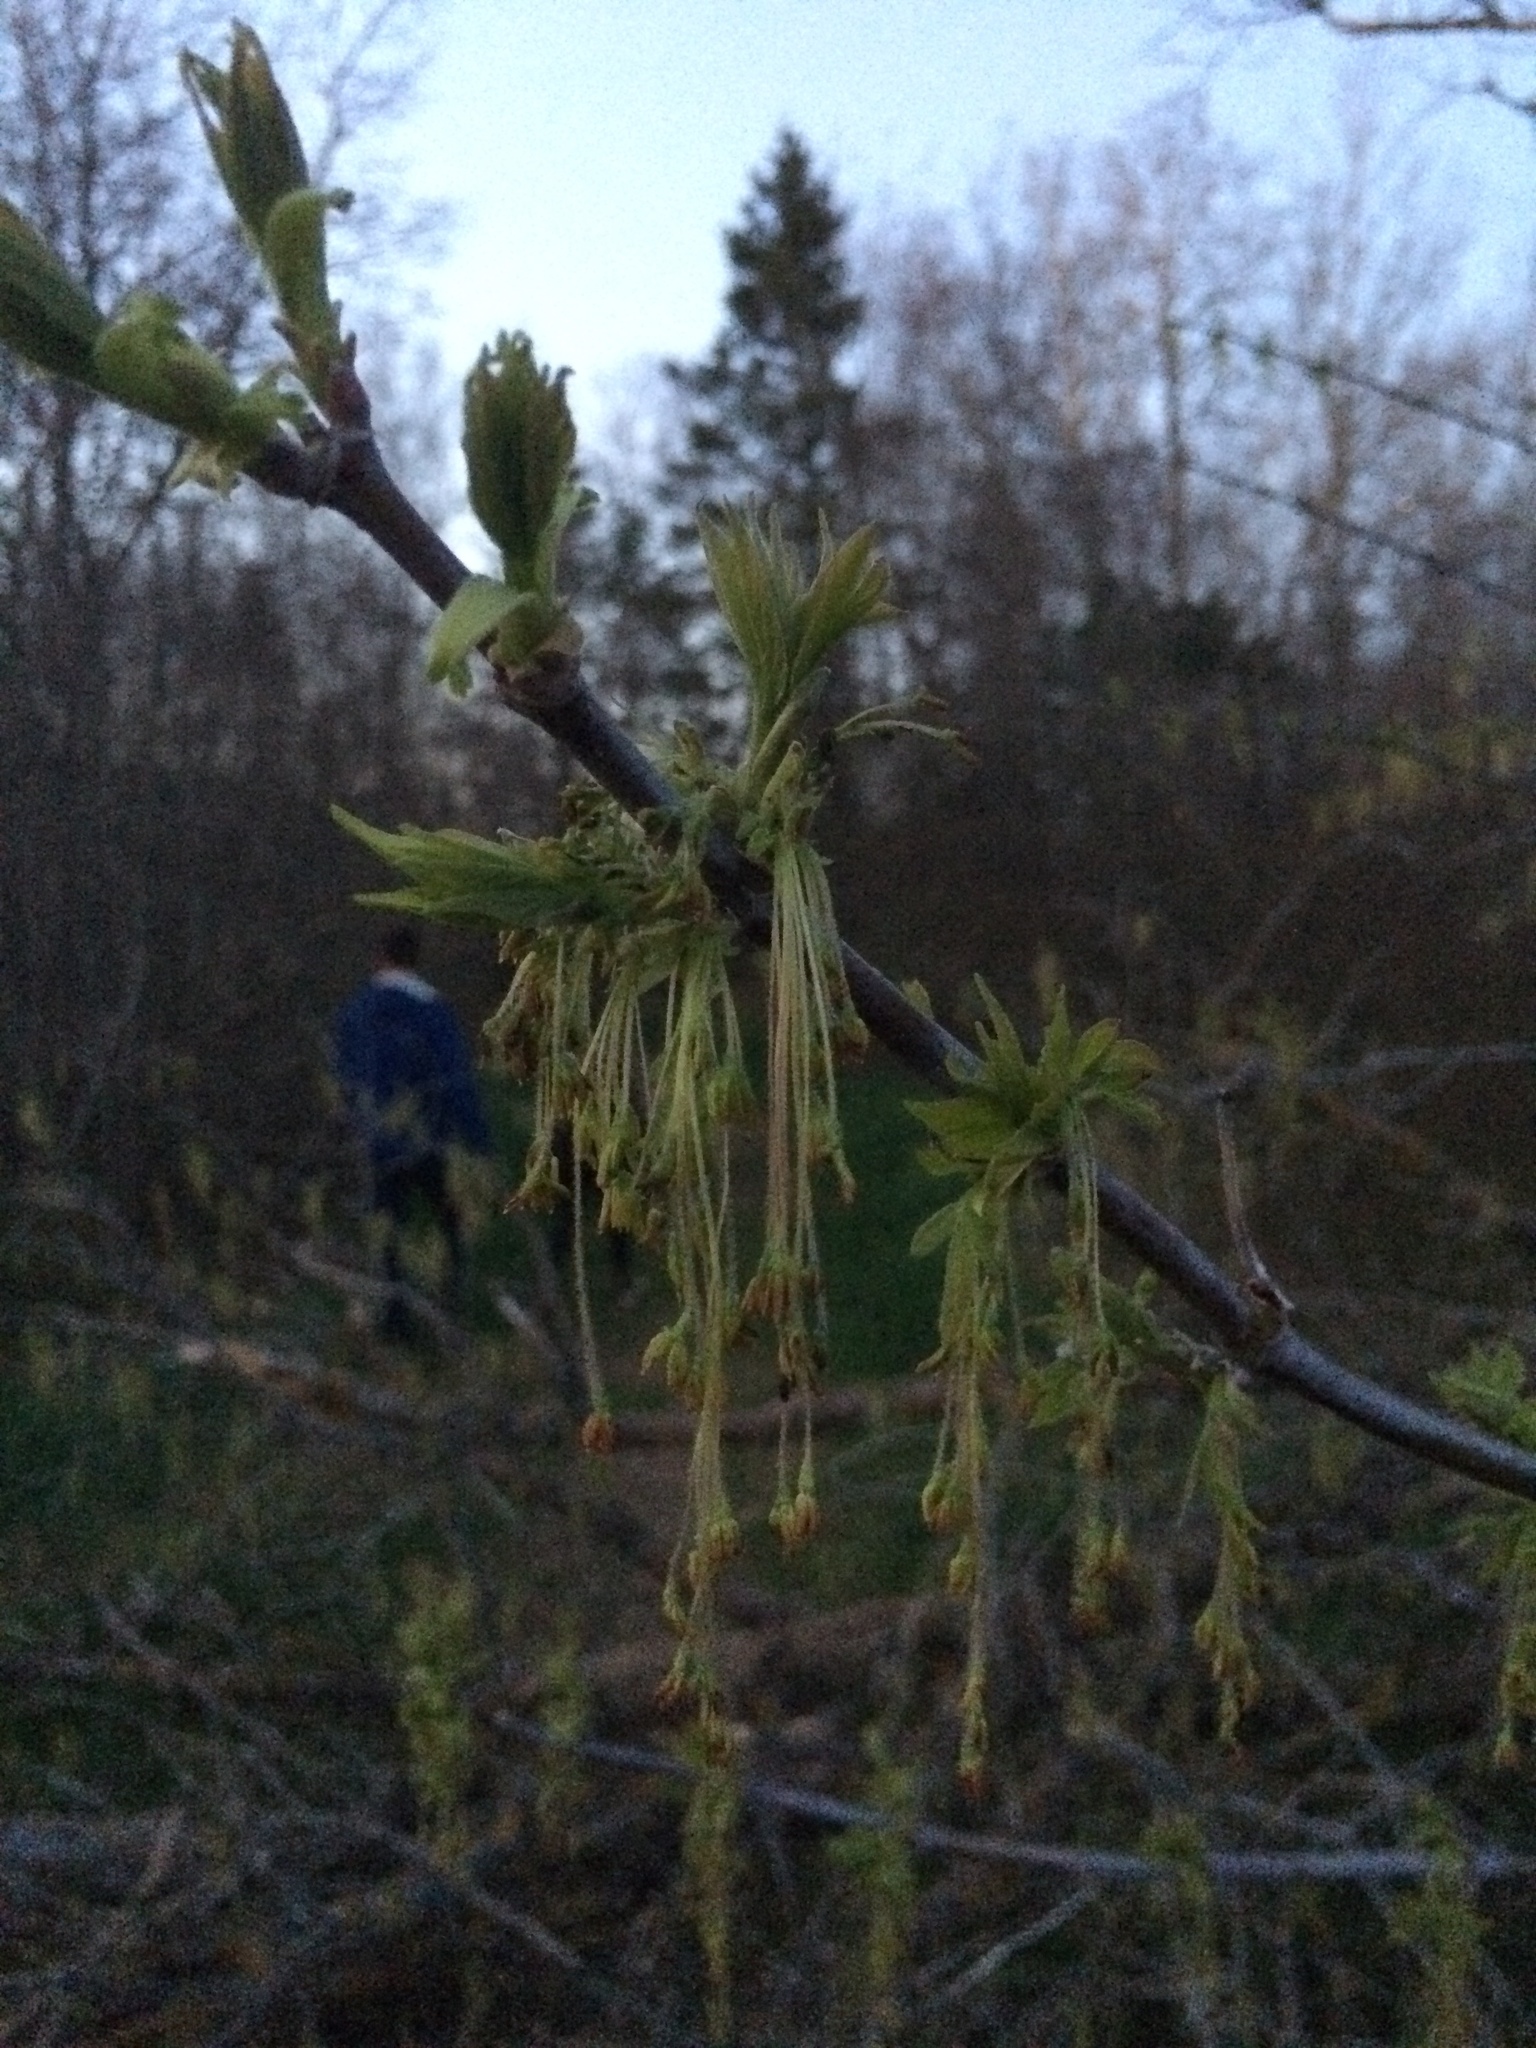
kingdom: Plantae
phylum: Tracheophyta
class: Magnoliopsida
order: Sapindales
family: Sapindaceae
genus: Acer
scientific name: Acer negundo
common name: Ashleaf maple
